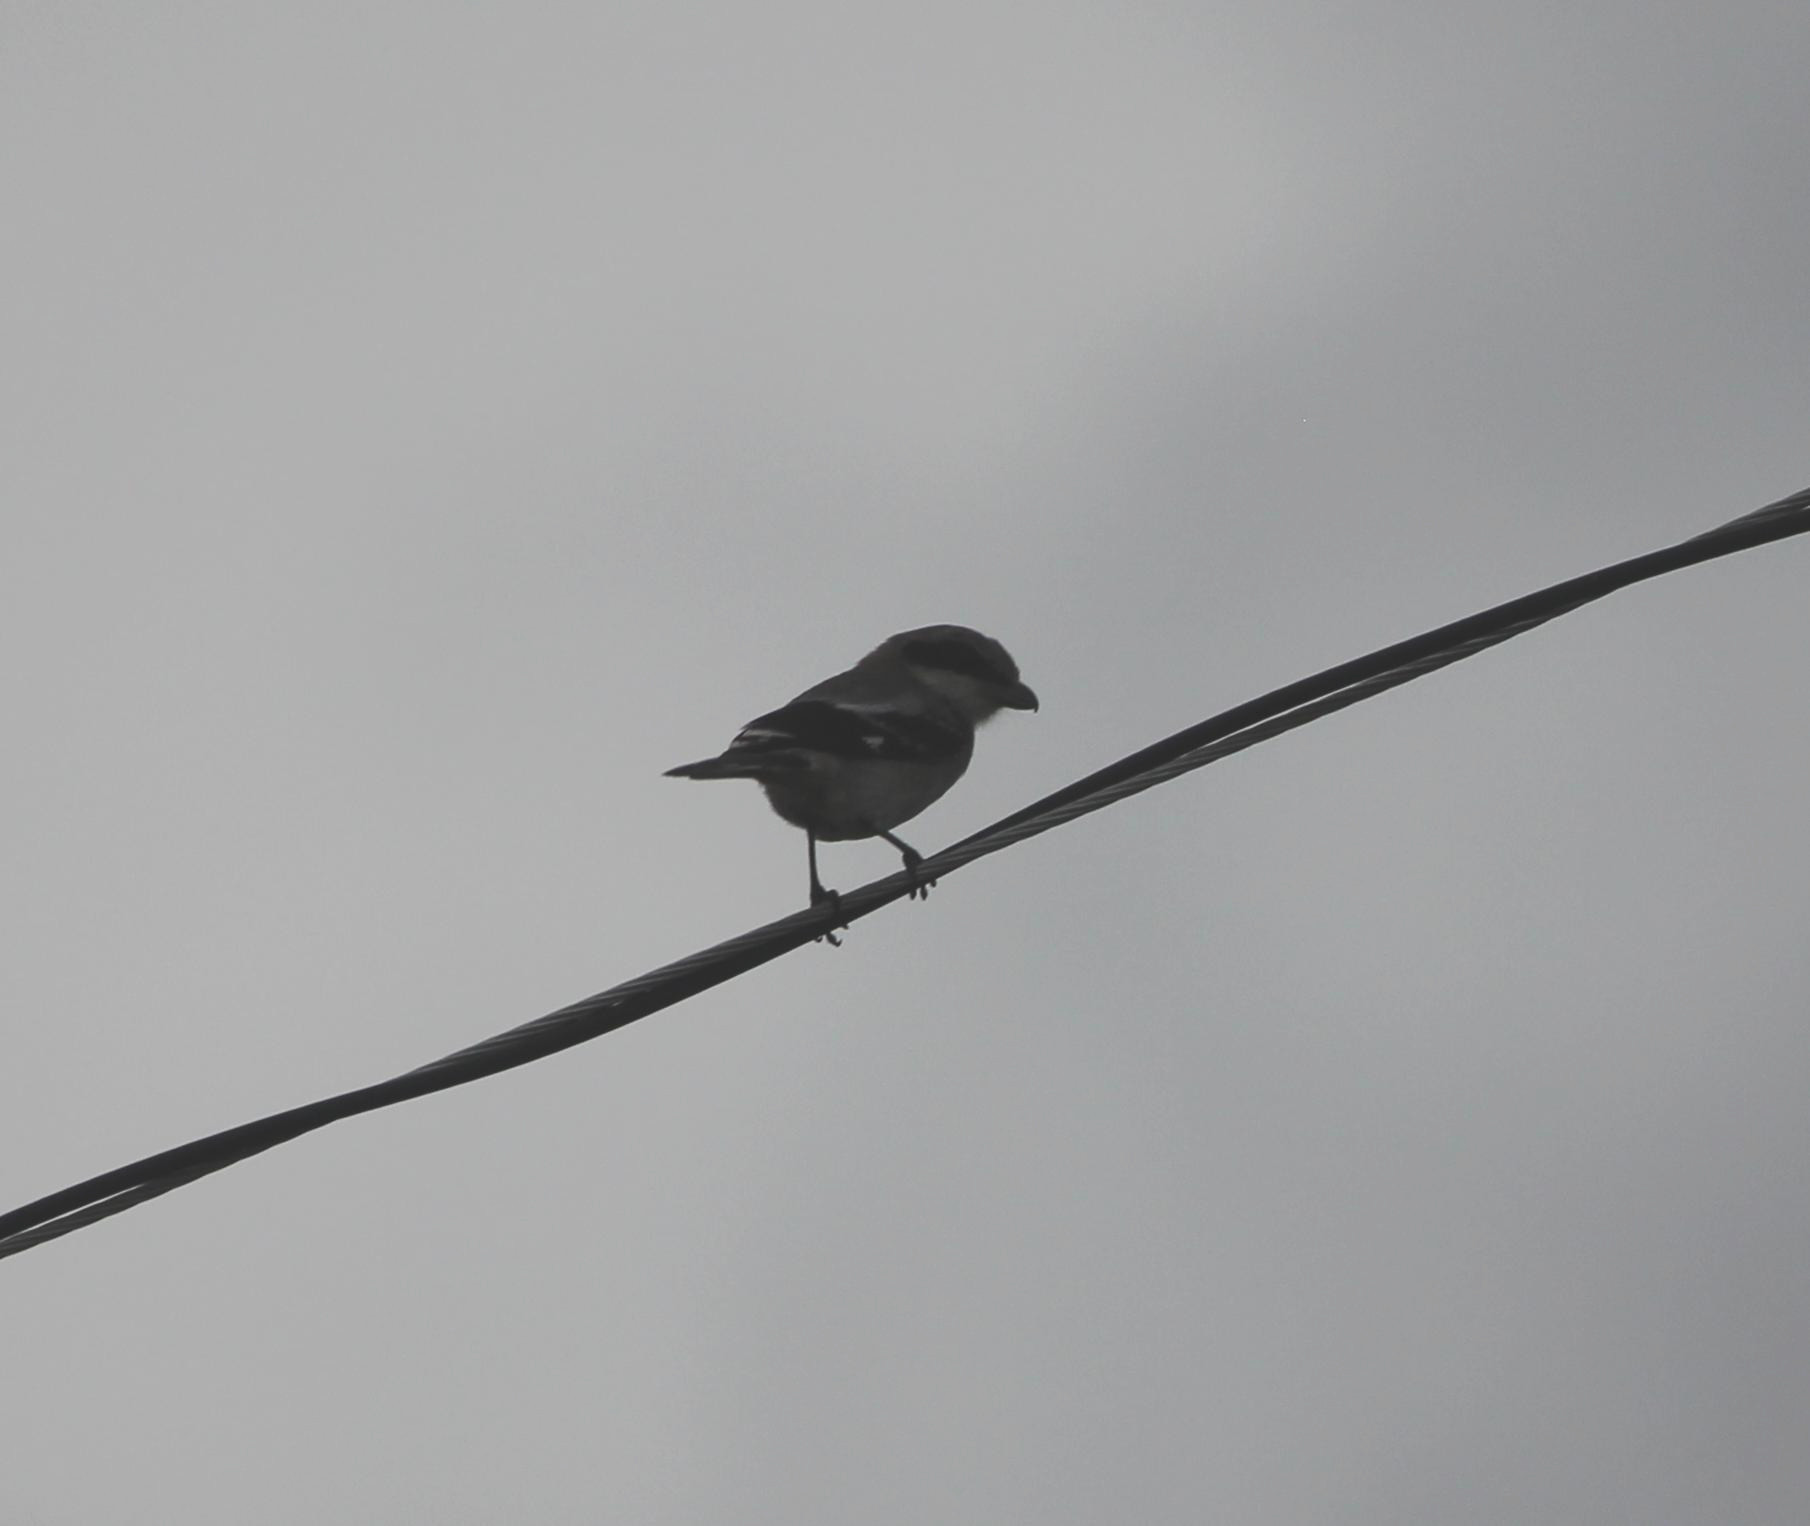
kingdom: Animalia
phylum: Chordata
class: Aves
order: Passeriformes
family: Laniidae
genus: Lanius
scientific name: Lanius ludovicianus
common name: Loggerhead shrike
